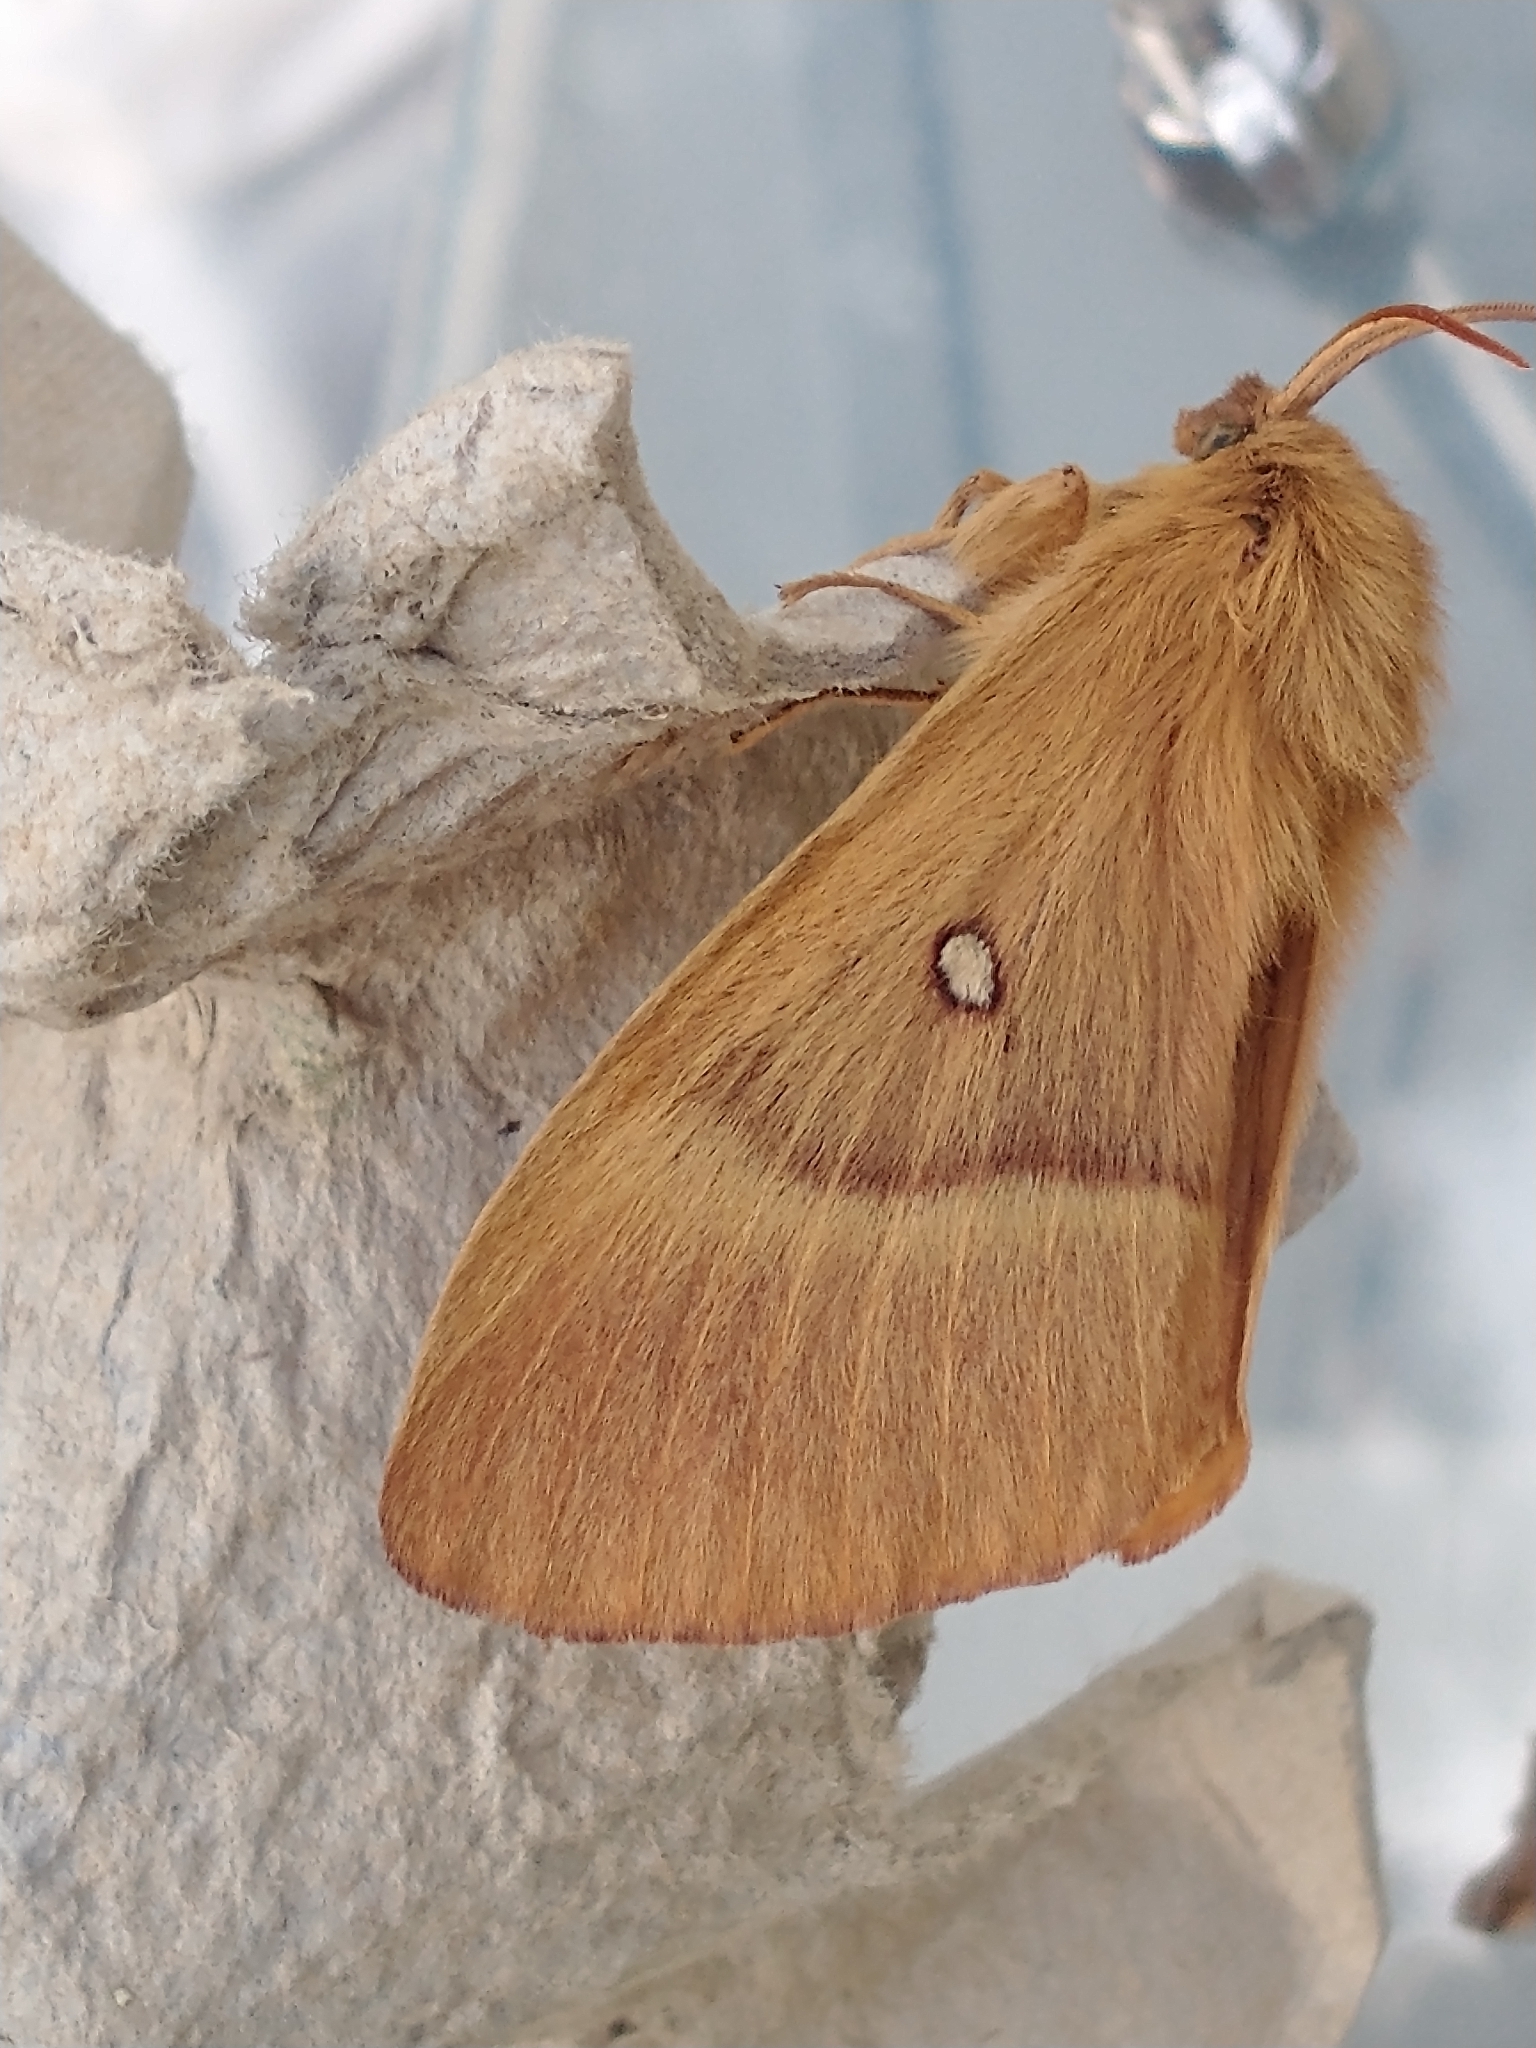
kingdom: Animalia
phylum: Arthropoda
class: Insecta
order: Lepidoptera
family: Lasiocampidae
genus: Lasiocampa
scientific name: Lasiocampa quercus
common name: Oak eggar
